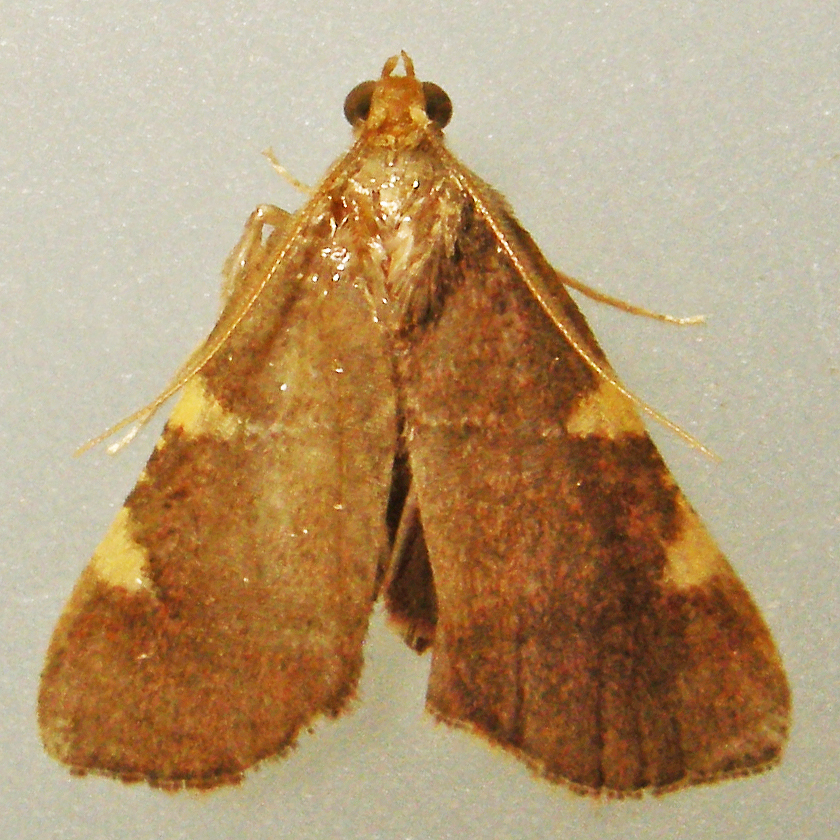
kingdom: Animalia
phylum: Arthropoda
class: Insecta
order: Lepidoptera
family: Pyralidae
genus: Hypsopygia
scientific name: Hypsopygia olinalis
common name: Yellow-fringed dolichomia moth
